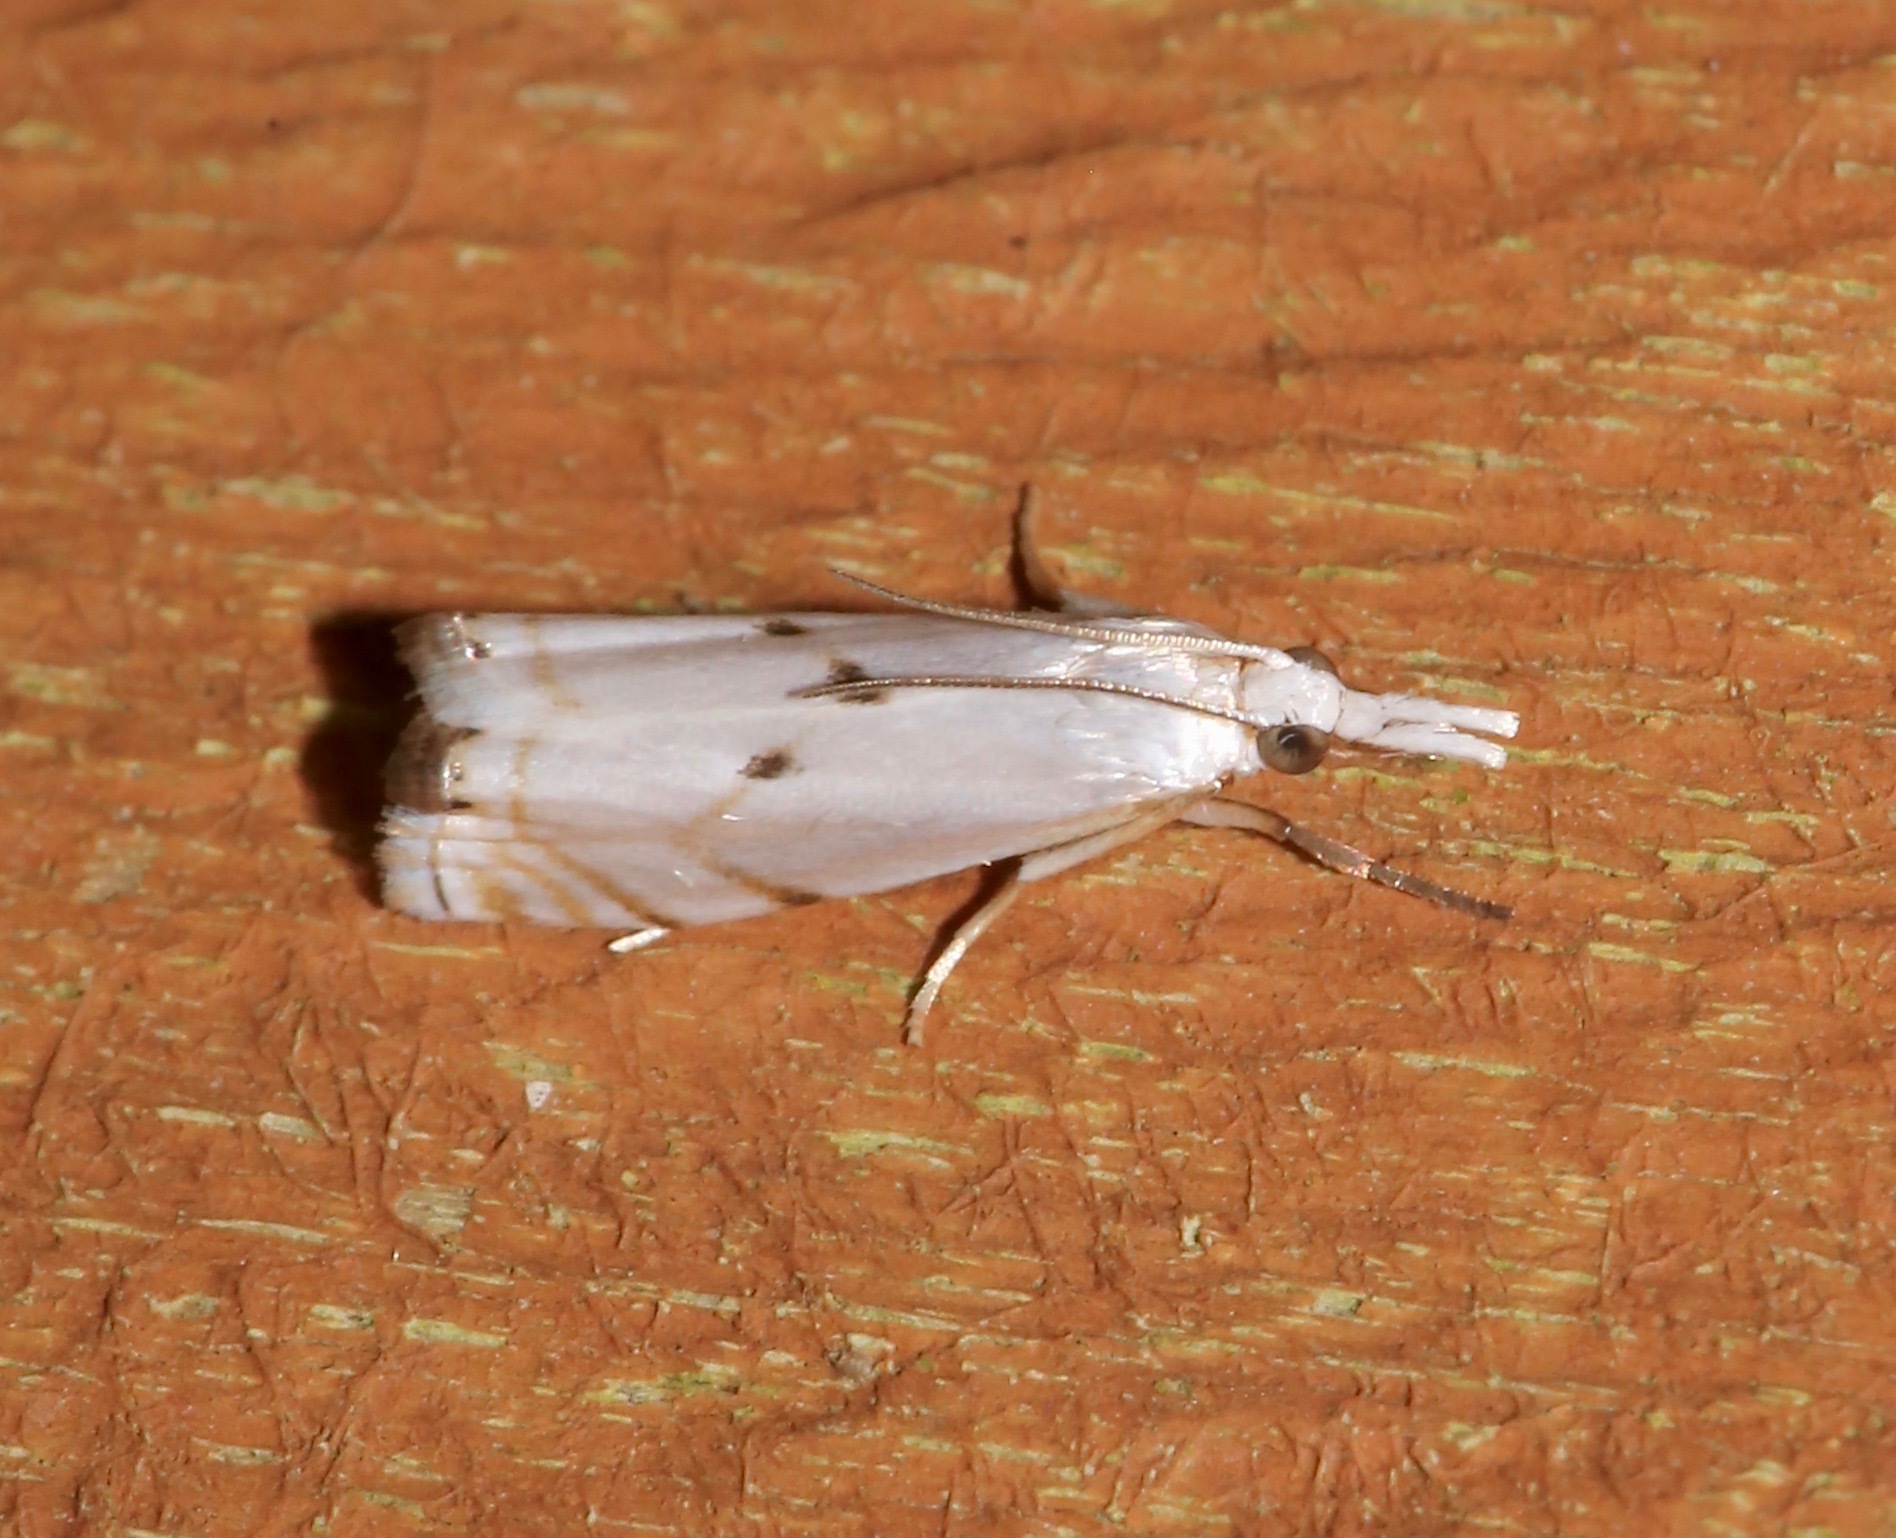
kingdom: Animalia
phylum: Arthropoda
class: Insecta
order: Lepidoptera
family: Crambidae
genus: Microcrambus
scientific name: Microcrambus biguttellus
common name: Gold-stripe grass-veneer moth
